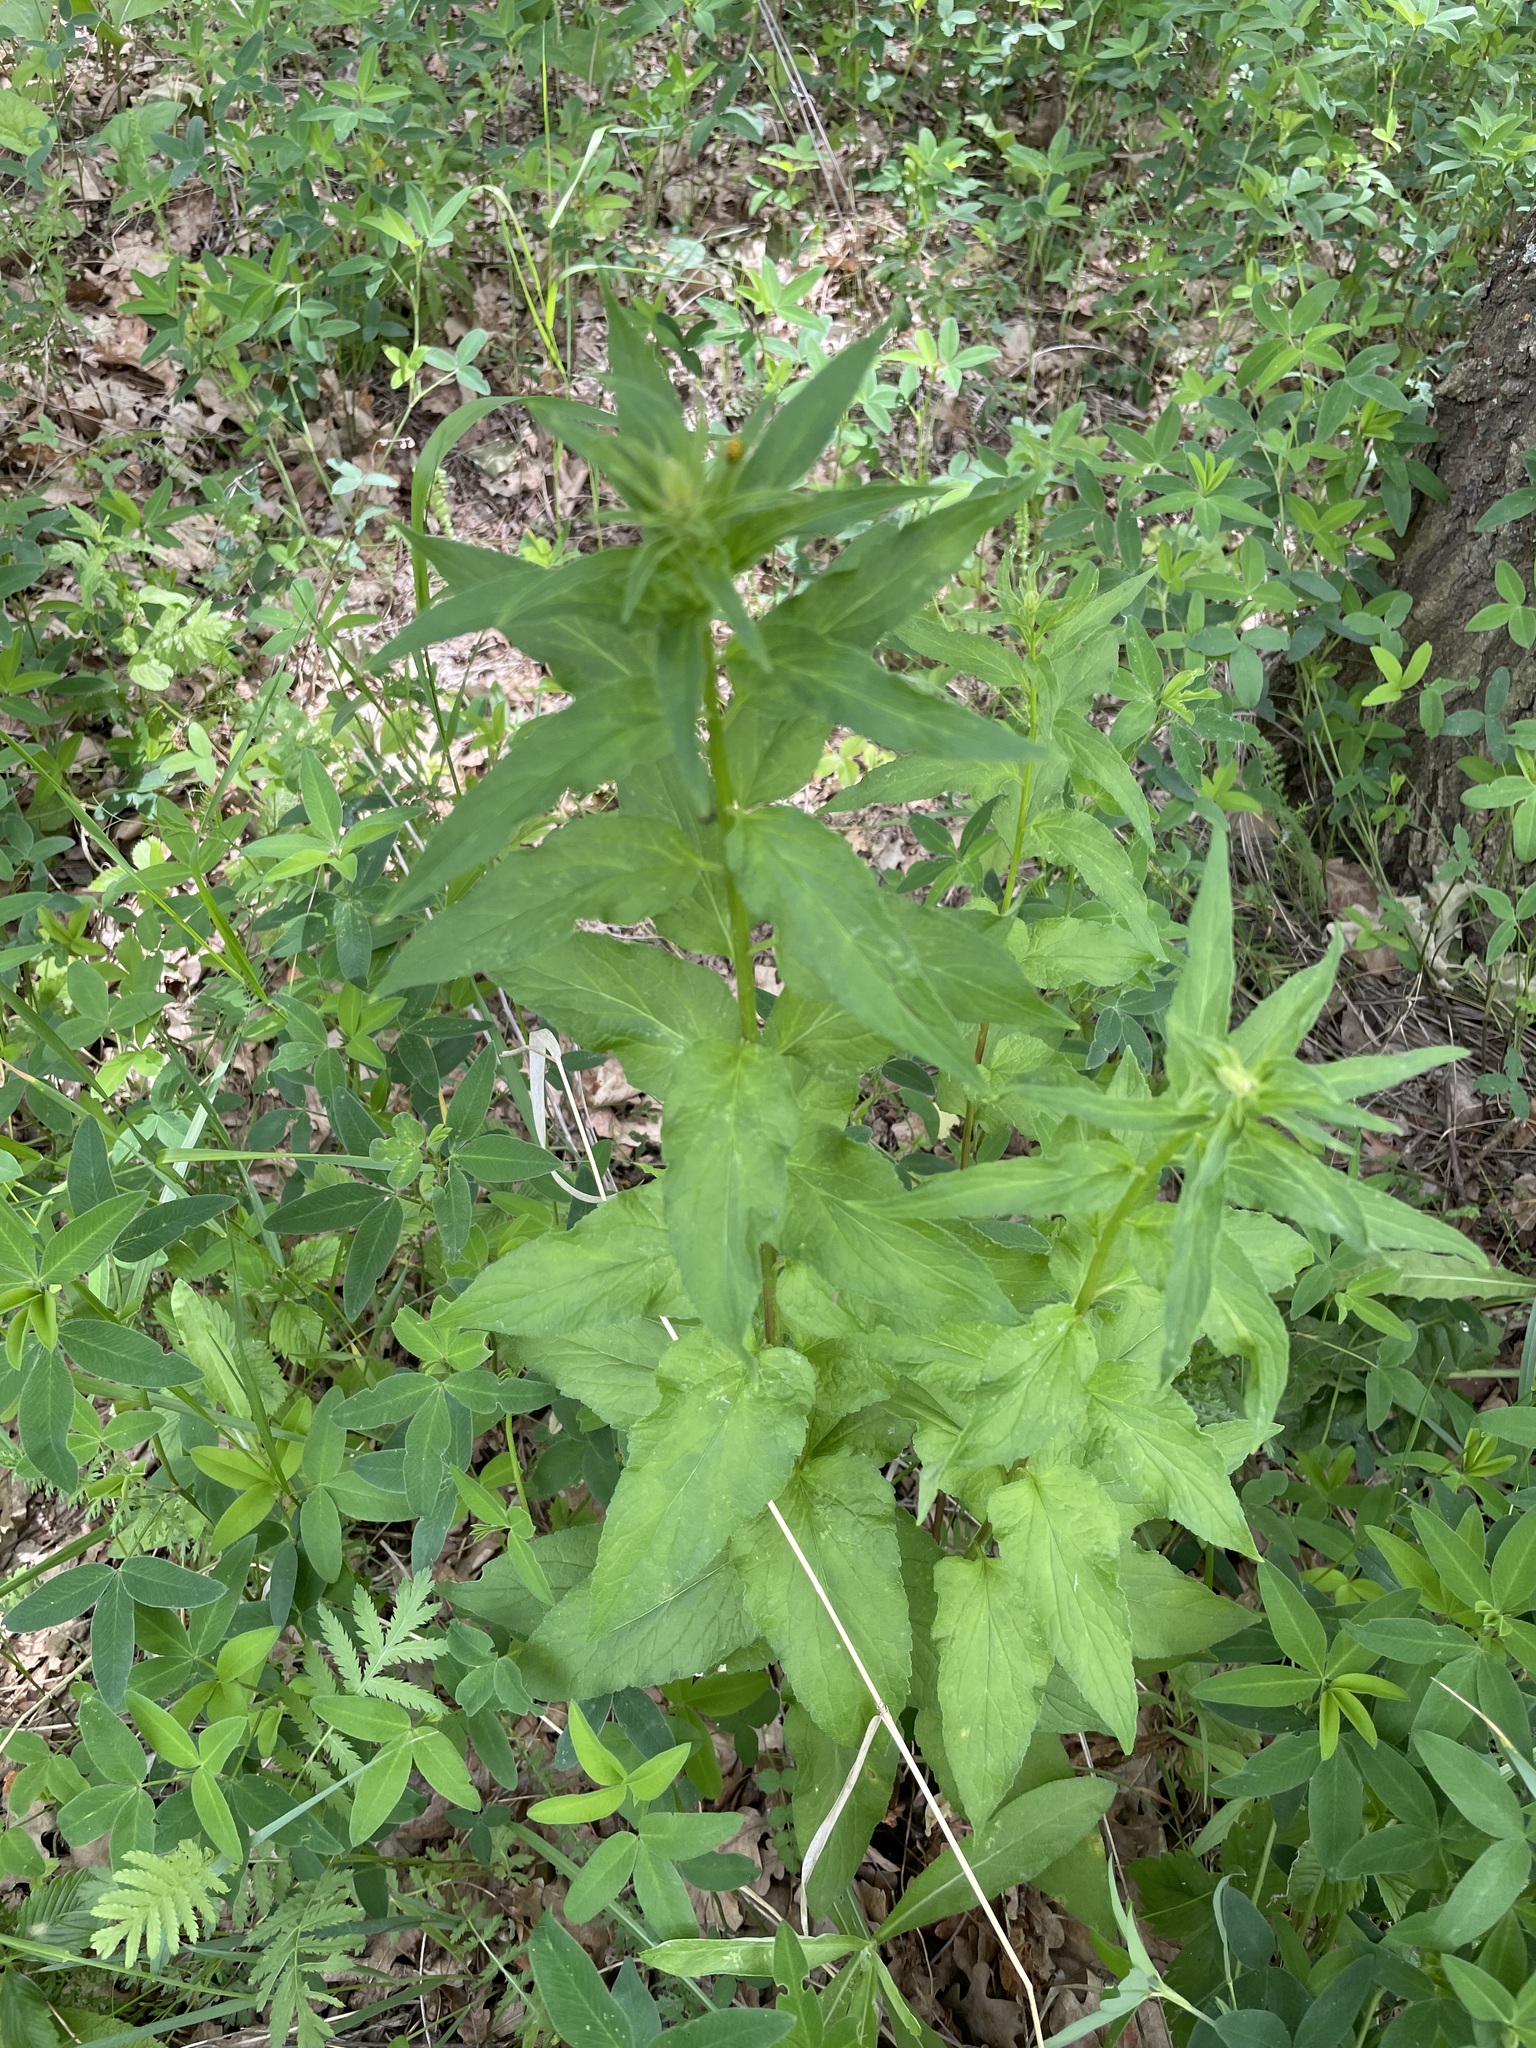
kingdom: Plantae
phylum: Tracheophyta
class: Magnoliopsida
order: Asterales
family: Campanulaceae
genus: Campanula
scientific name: Campanula rapunculoides
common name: Creeping bellflower
